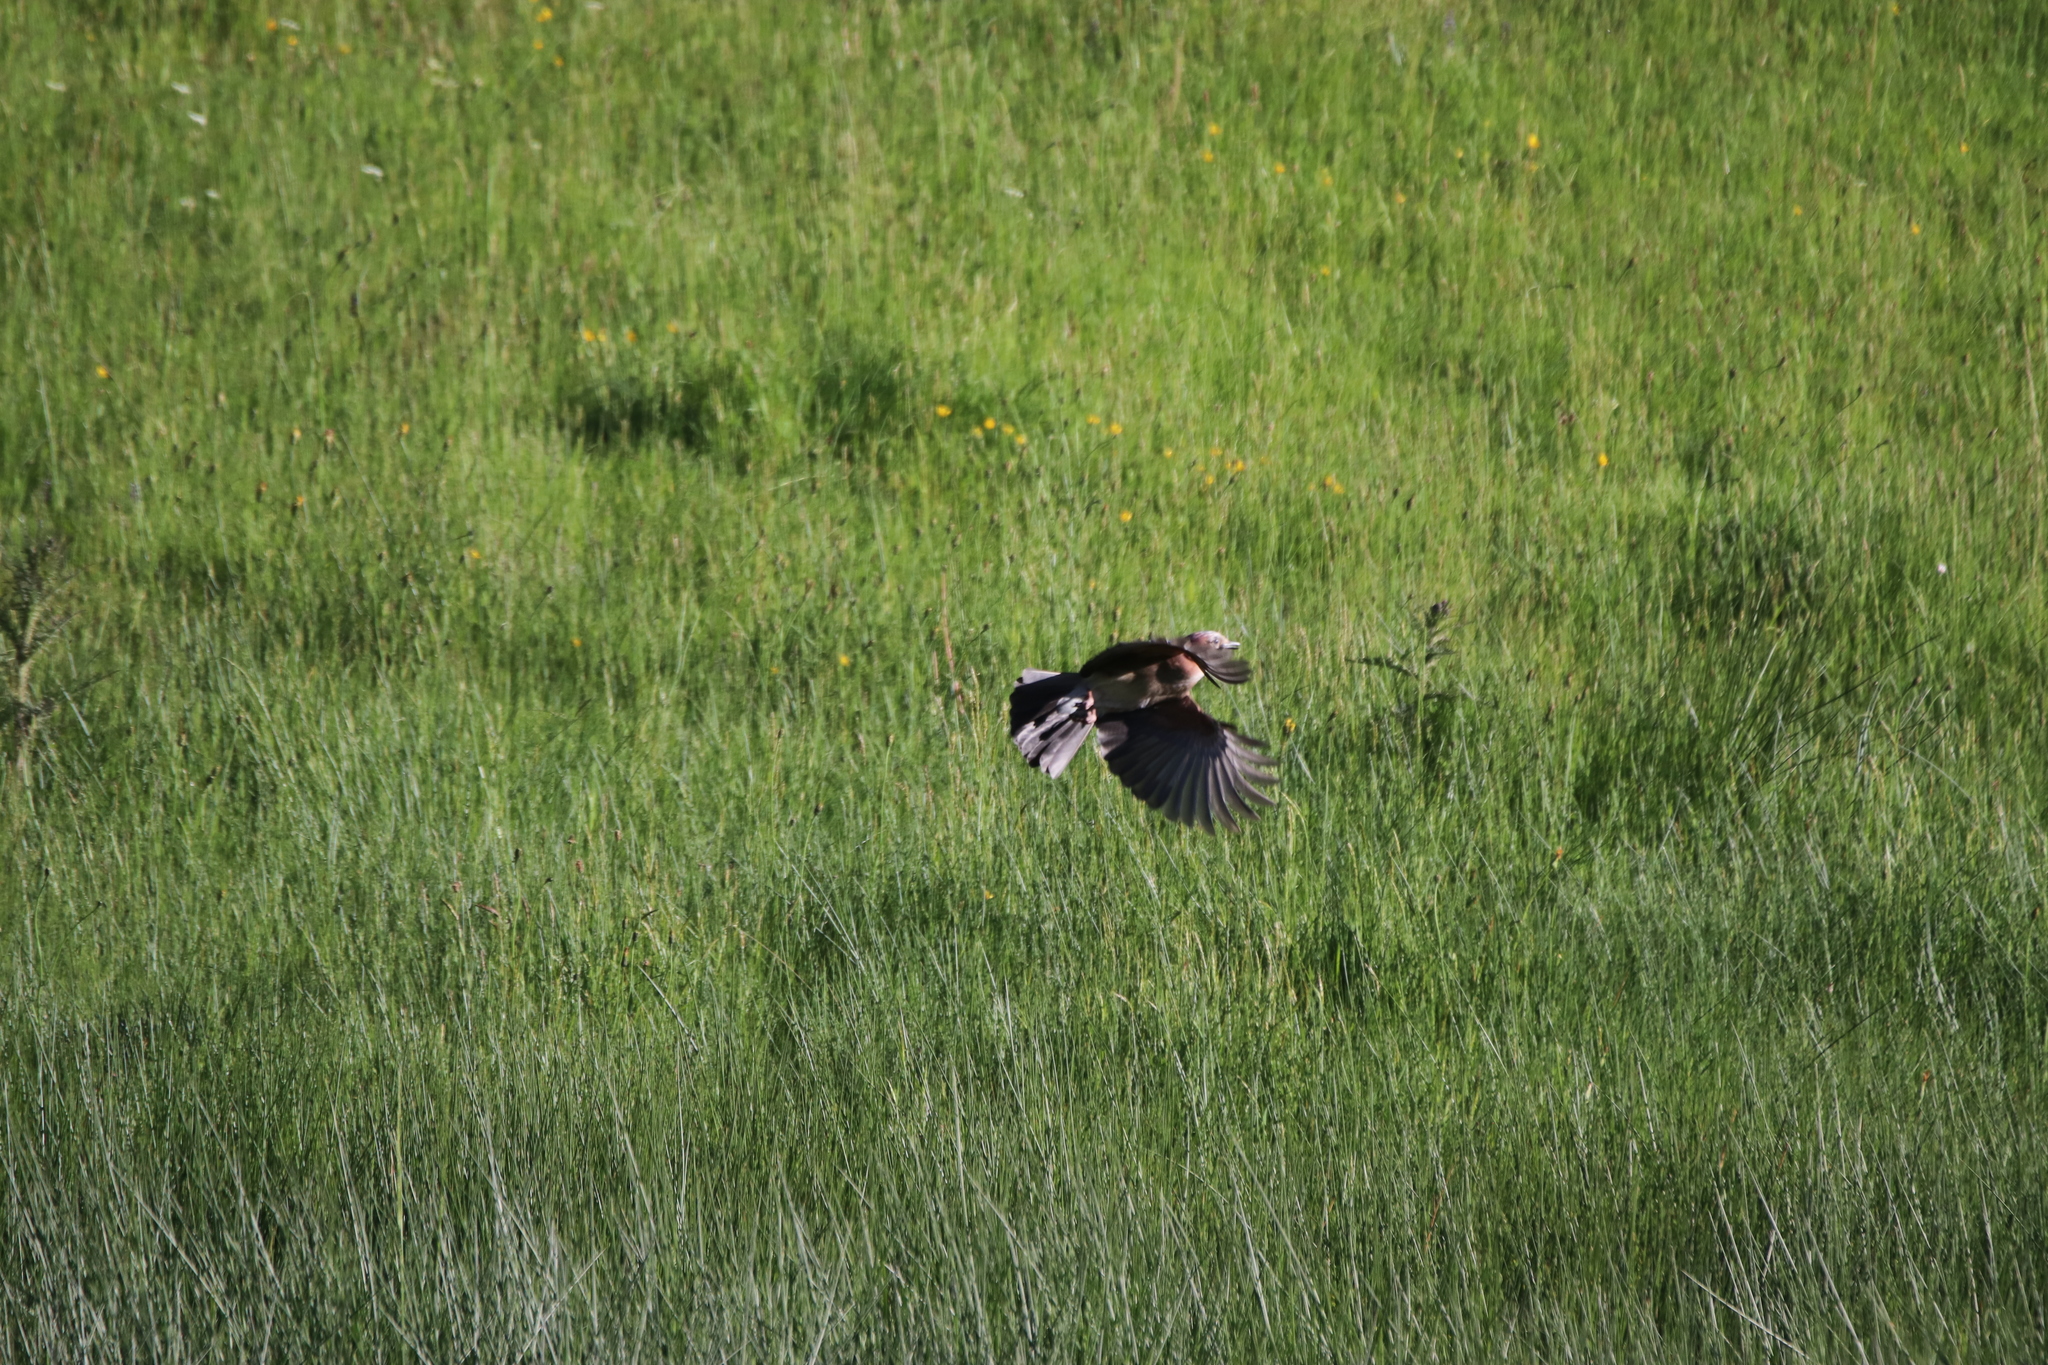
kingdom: Animalia
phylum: Chordata
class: Aves
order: Passeriformes
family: Corvidae
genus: Garrulus
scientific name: Garrulus glandarius
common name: Eurasian jay
